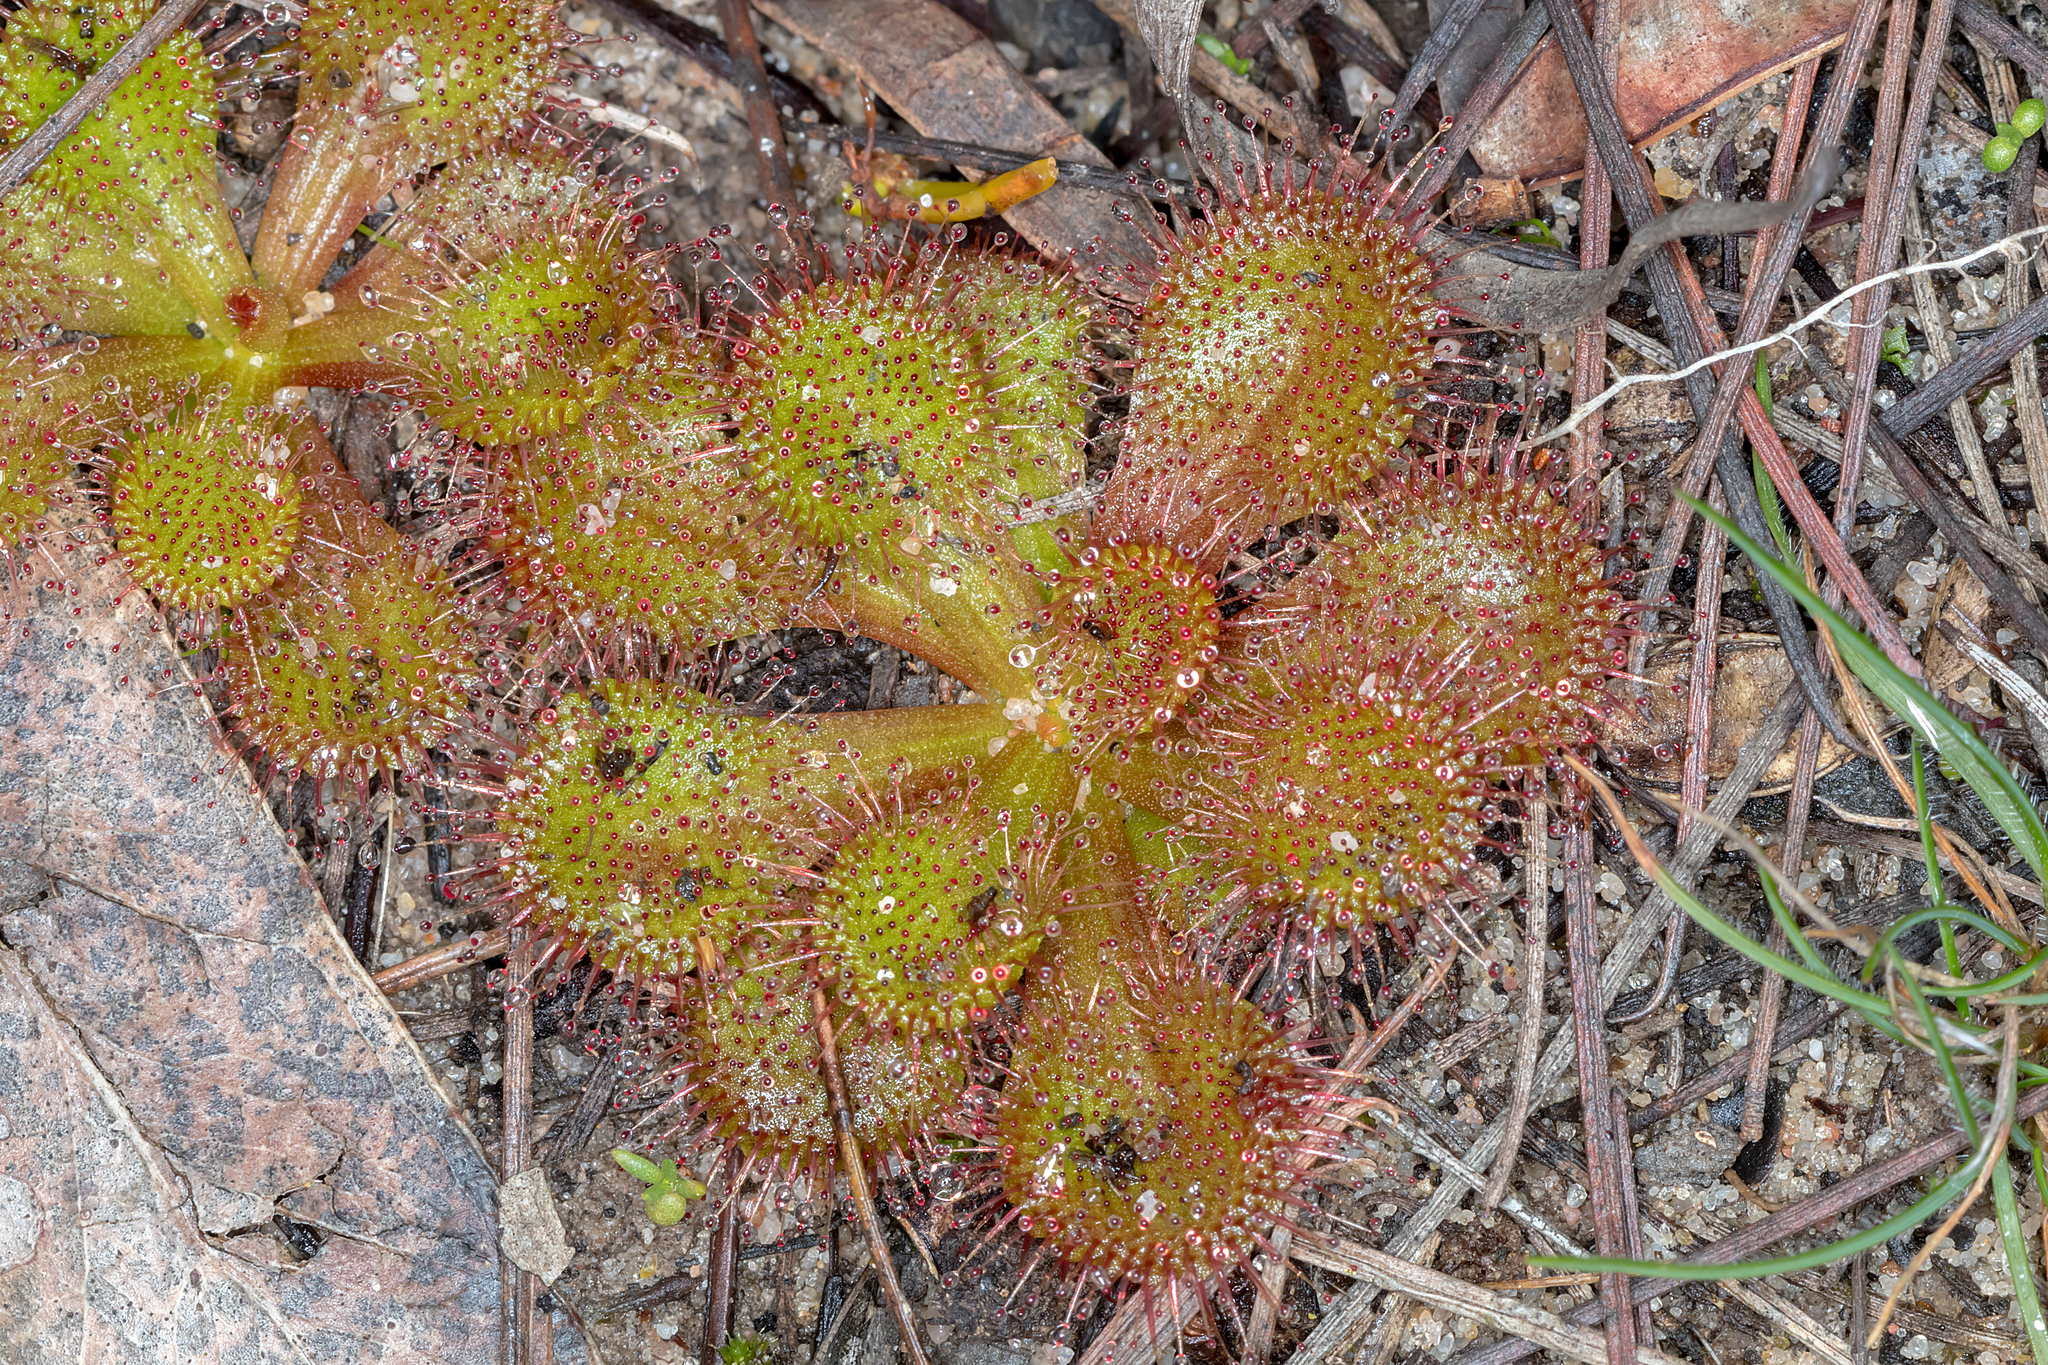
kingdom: Plantae
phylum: Tracheophyta
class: Magnoliopsida
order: Caryophyllales
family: Droseraceae
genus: Drosera
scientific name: Drosera aberrans
